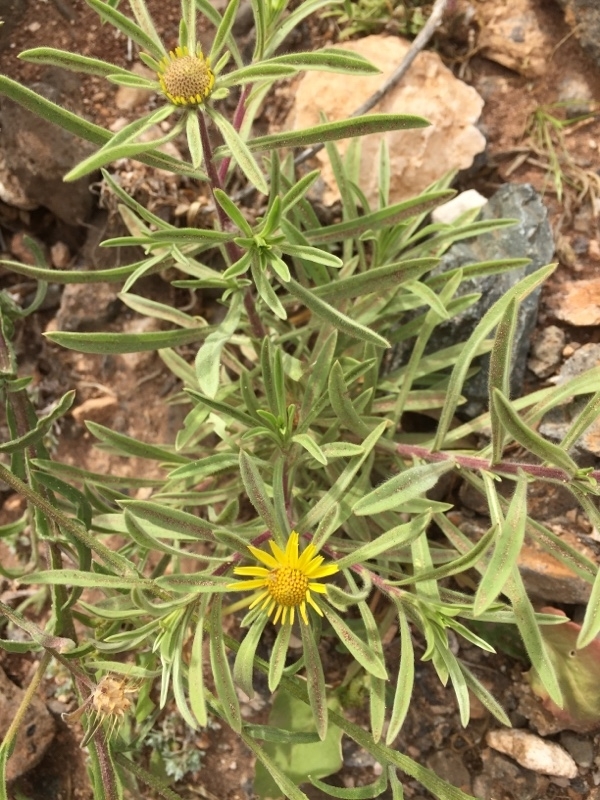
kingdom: Plantae
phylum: Tracheophyta
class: Magnoliopsida
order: Asterales
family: Asteraceae
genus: Pallenis
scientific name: Pallenis spinosa
